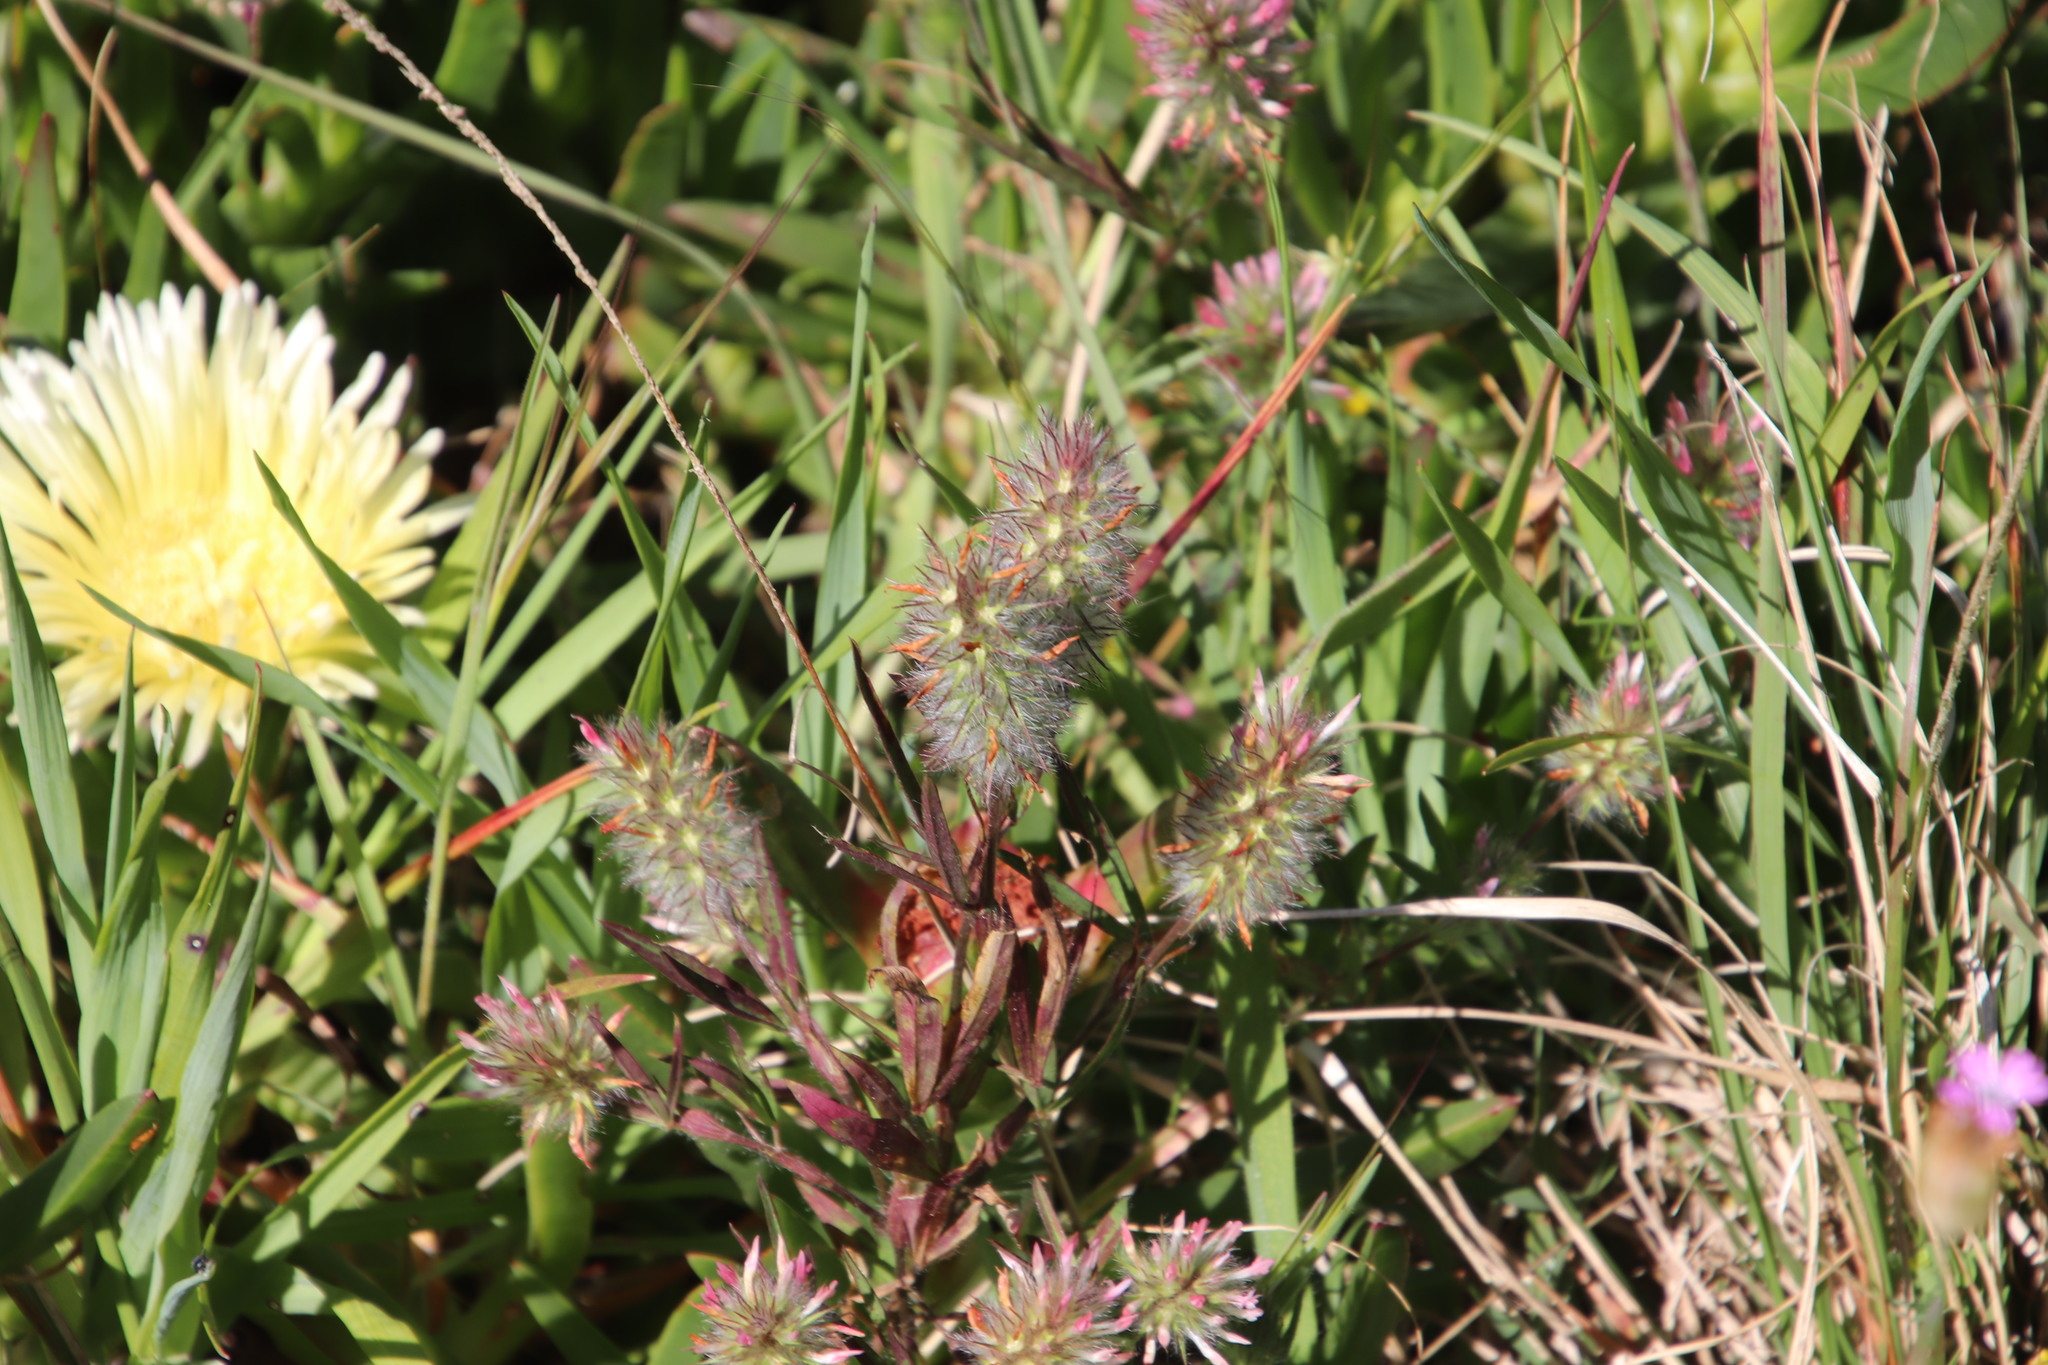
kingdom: Plantae
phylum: Tracheophyta
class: Magnoliopsida
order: Fabales
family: Fabaceae
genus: Trifolium
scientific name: Trifolium angustifolium
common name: Narrow clover
